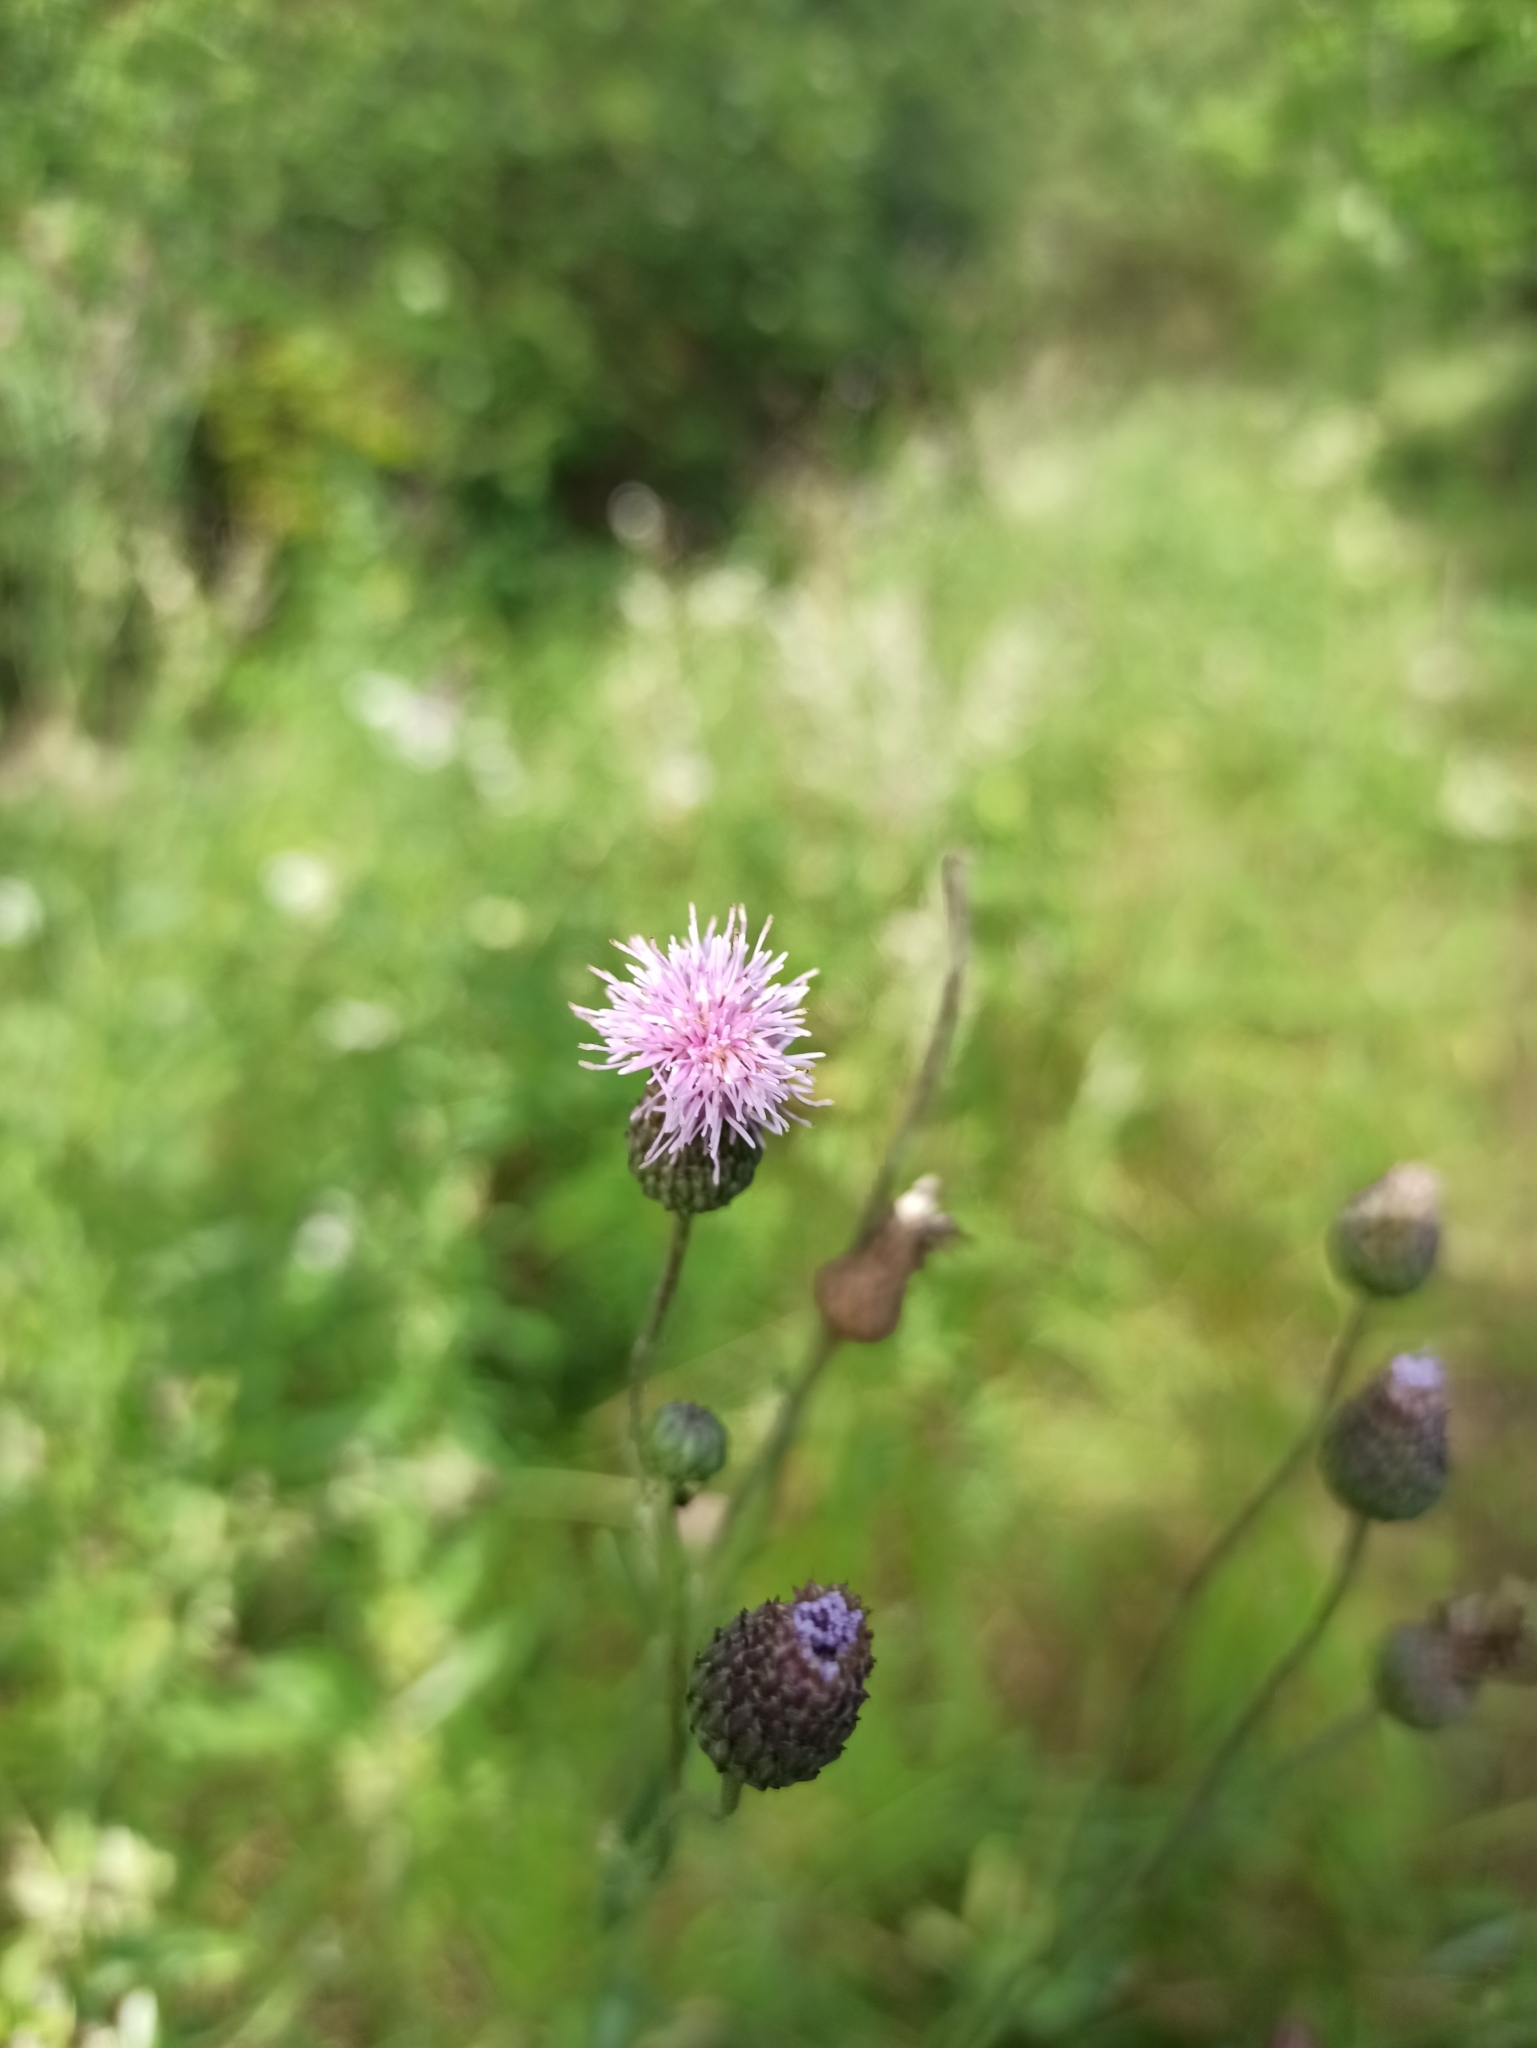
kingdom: Plantae
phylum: Tracheophyta
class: Magnoliopsida
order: Asterales
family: Asteraceae
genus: Cirsium
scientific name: Cirsium arvense
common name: Creeping thistle
